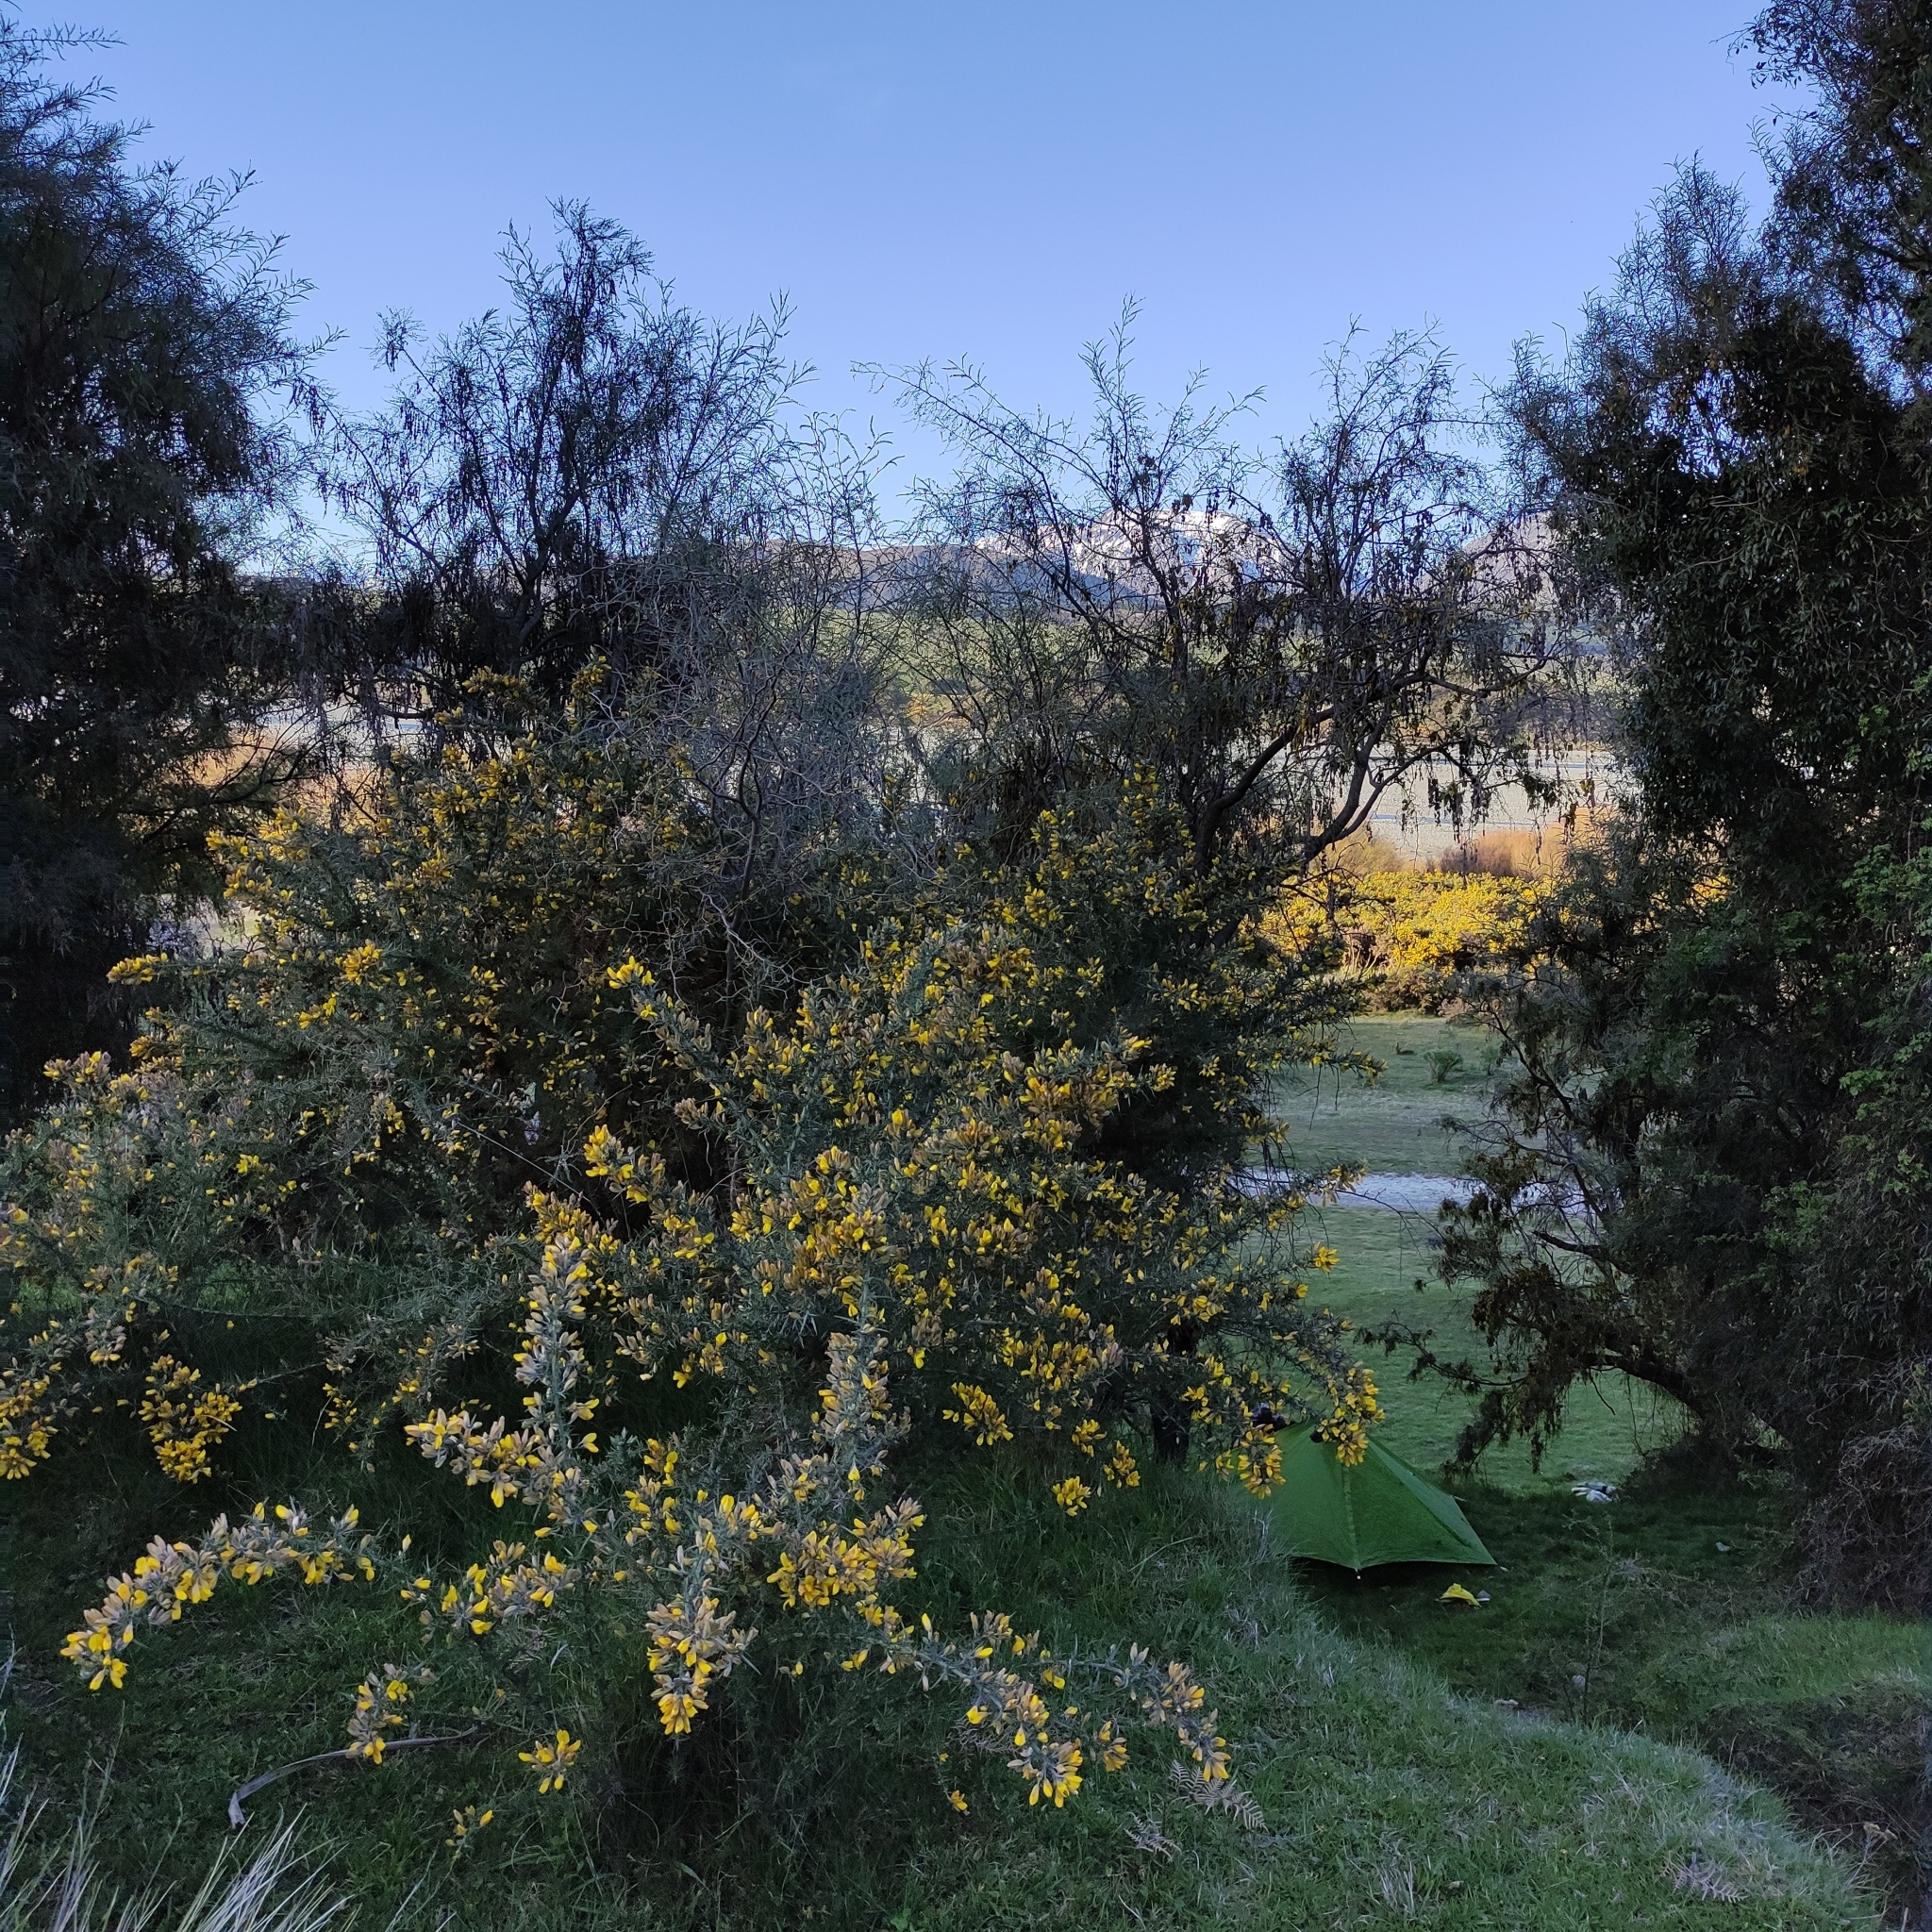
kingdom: Plantae
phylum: Tracheophyta
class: Magnoliopsida
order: Fabales
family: Fabaceae
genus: Ulex
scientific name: Ulex europaeus
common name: Common gorse
